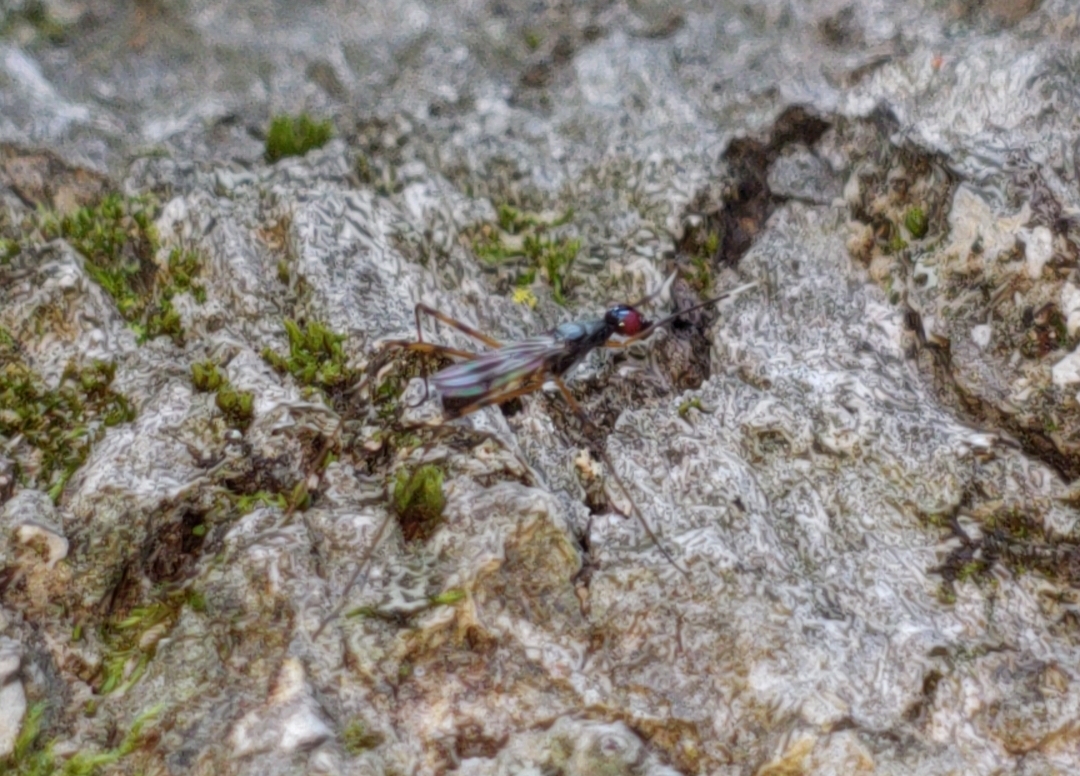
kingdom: Animalia
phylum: Arthropoda
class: Insecta
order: Diptera
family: Micropezidae
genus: Rainieria
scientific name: Rainieria antennaepes
